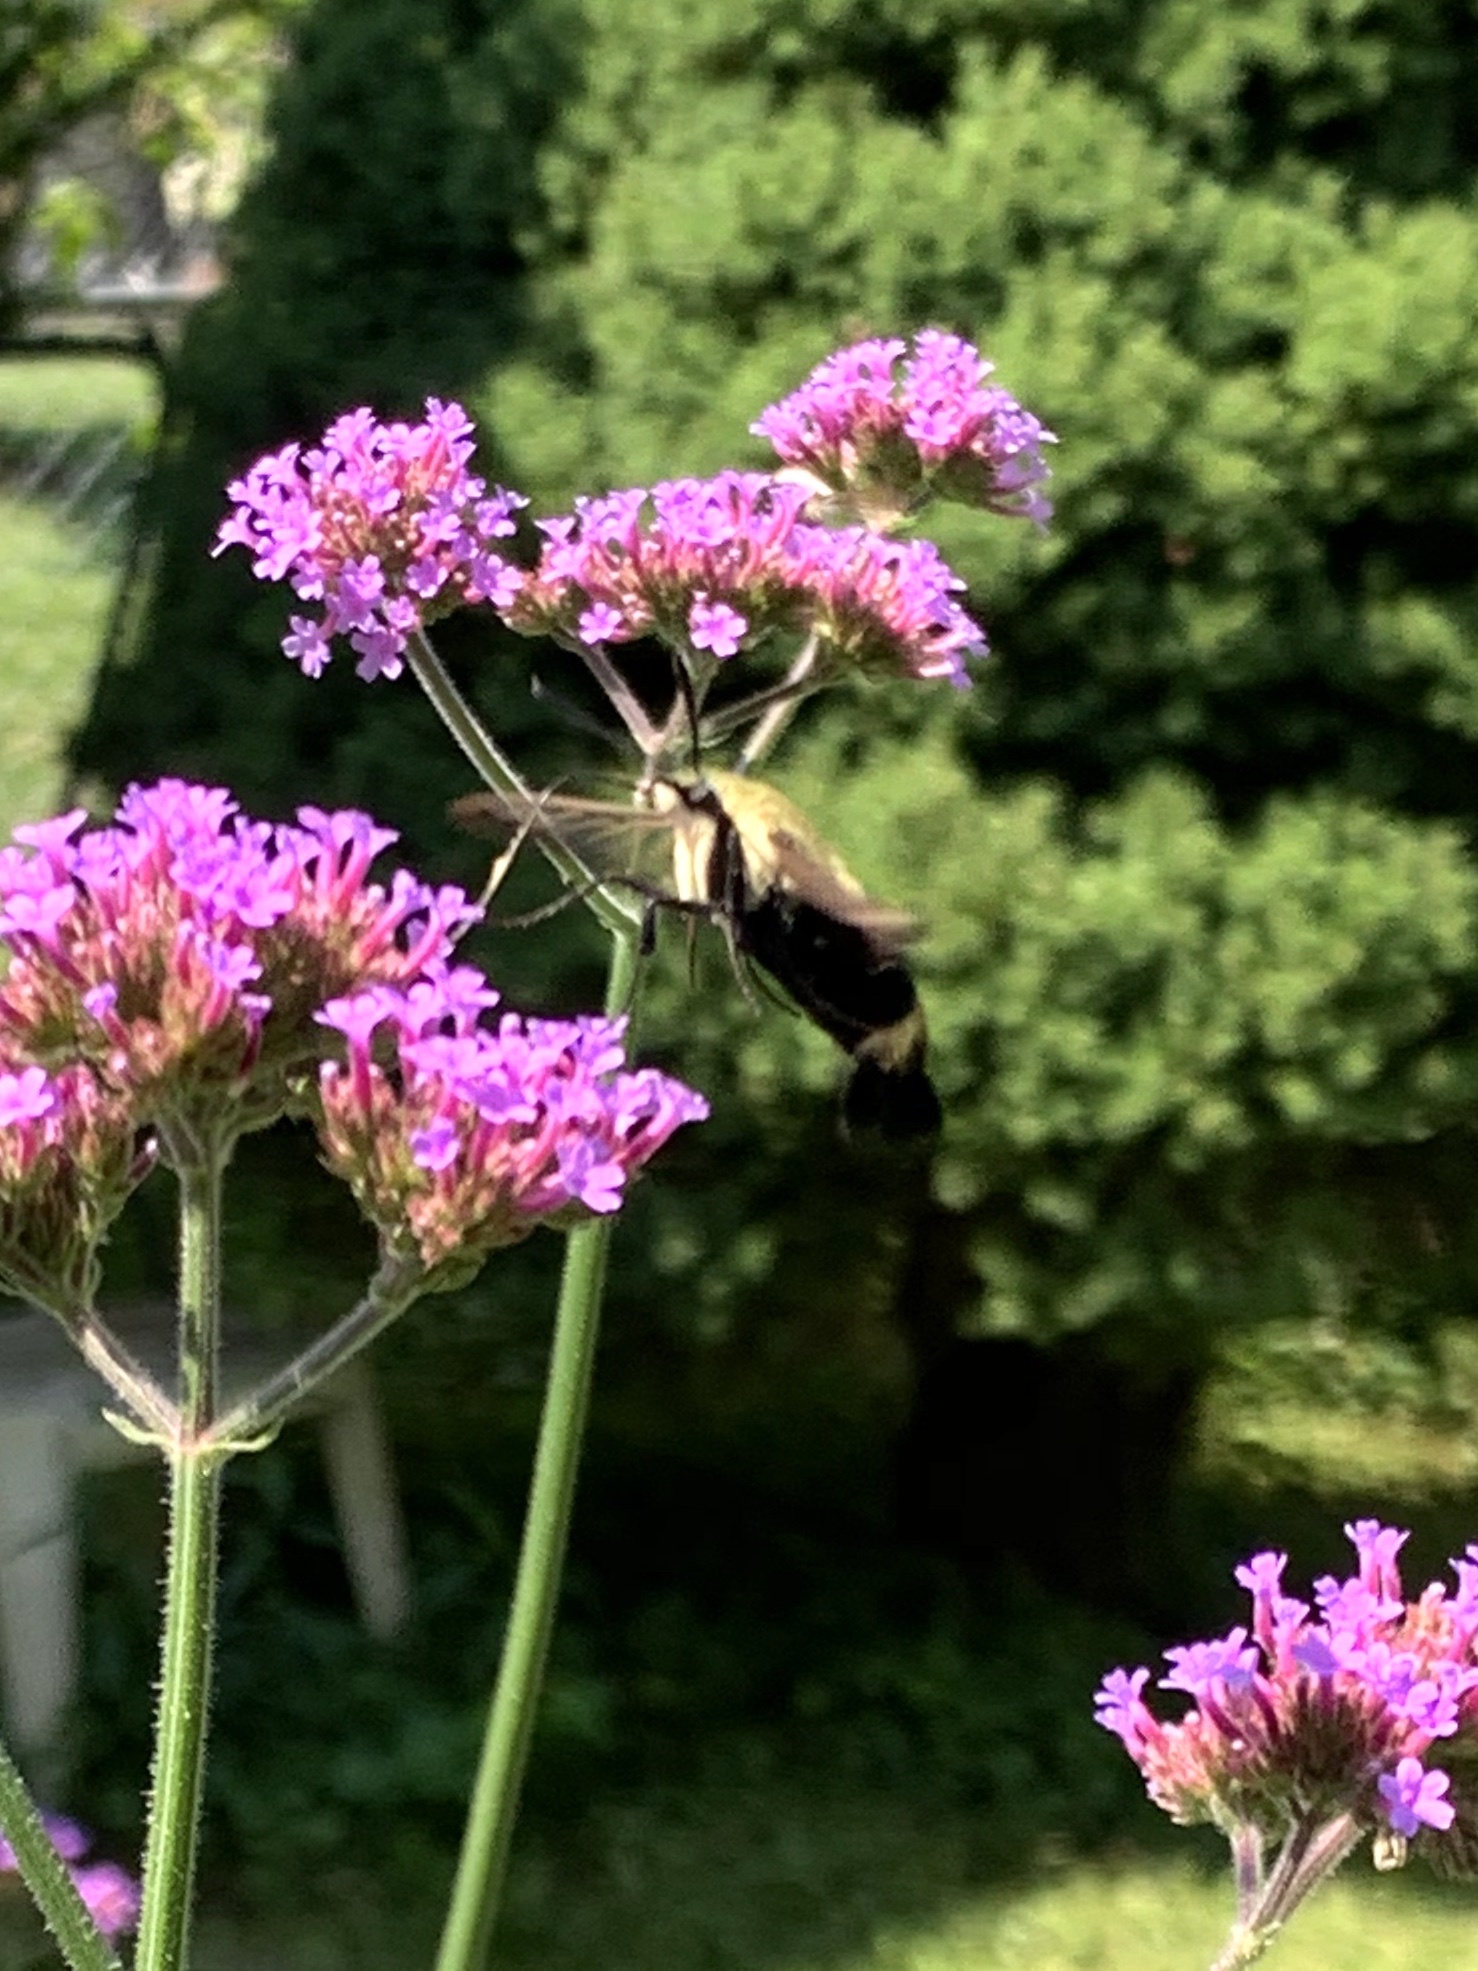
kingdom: Animalia
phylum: Arthropoda
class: Insecta
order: Lepidoptera
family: Sphingidae
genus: Hemaris
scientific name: Hemaris diffinis
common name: Bumblebee moth
